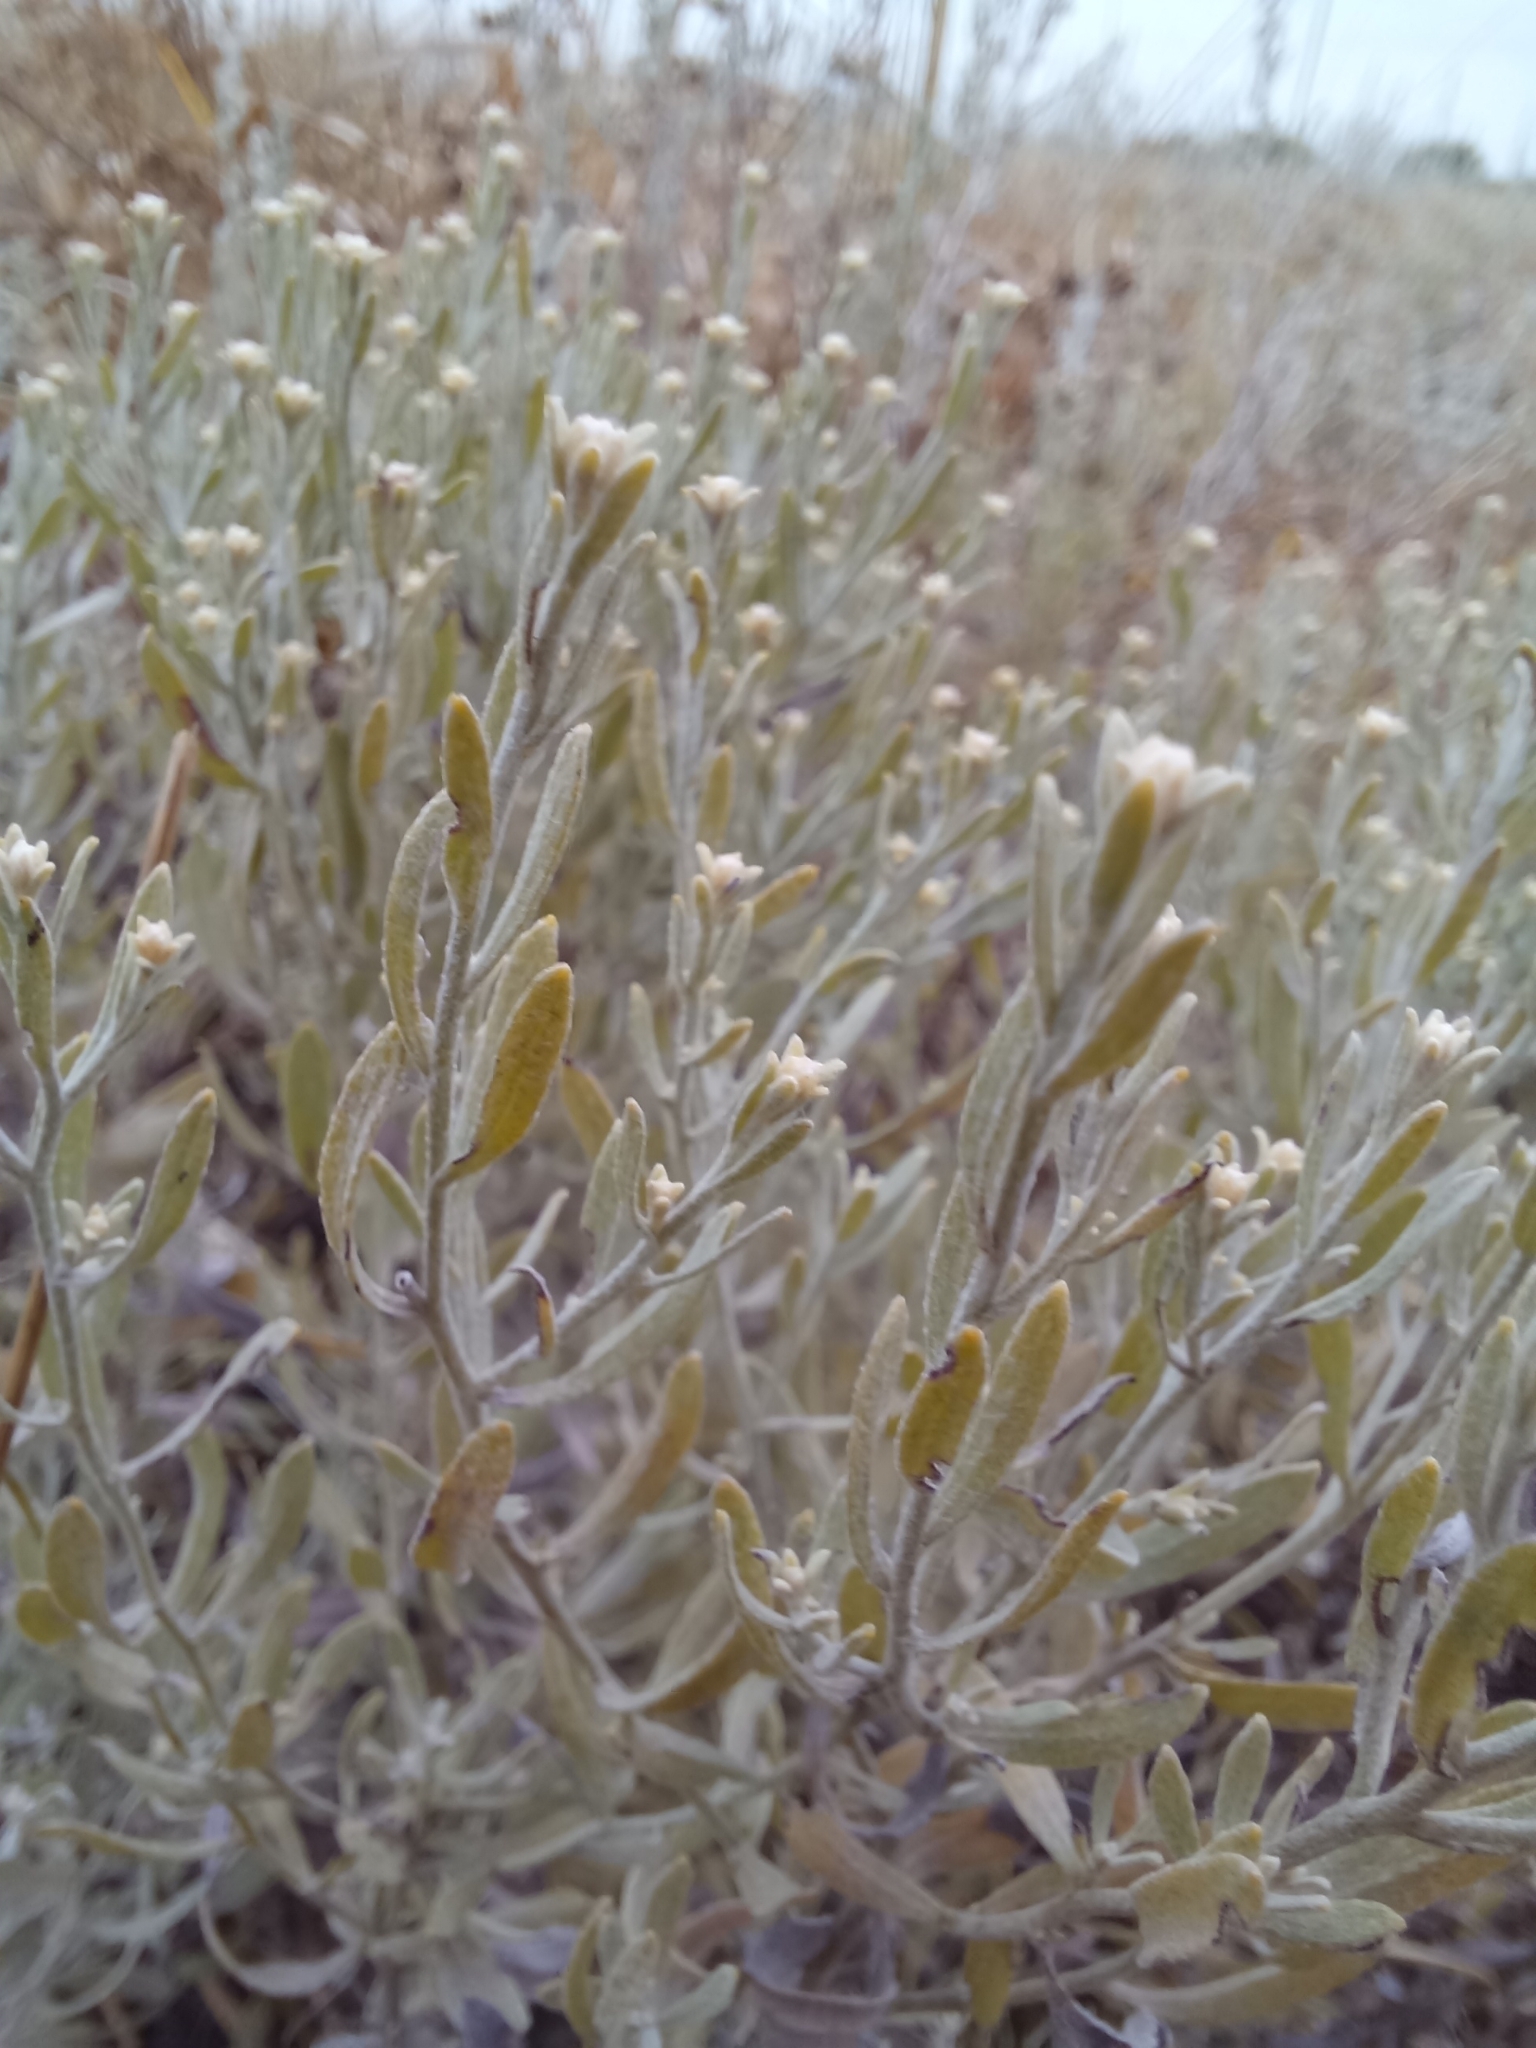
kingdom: Plantae
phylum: Tracheophyta
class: Magnoliopsida
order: Asterales
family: Asteraceae
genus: Galatella
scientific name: Galatella villosa
